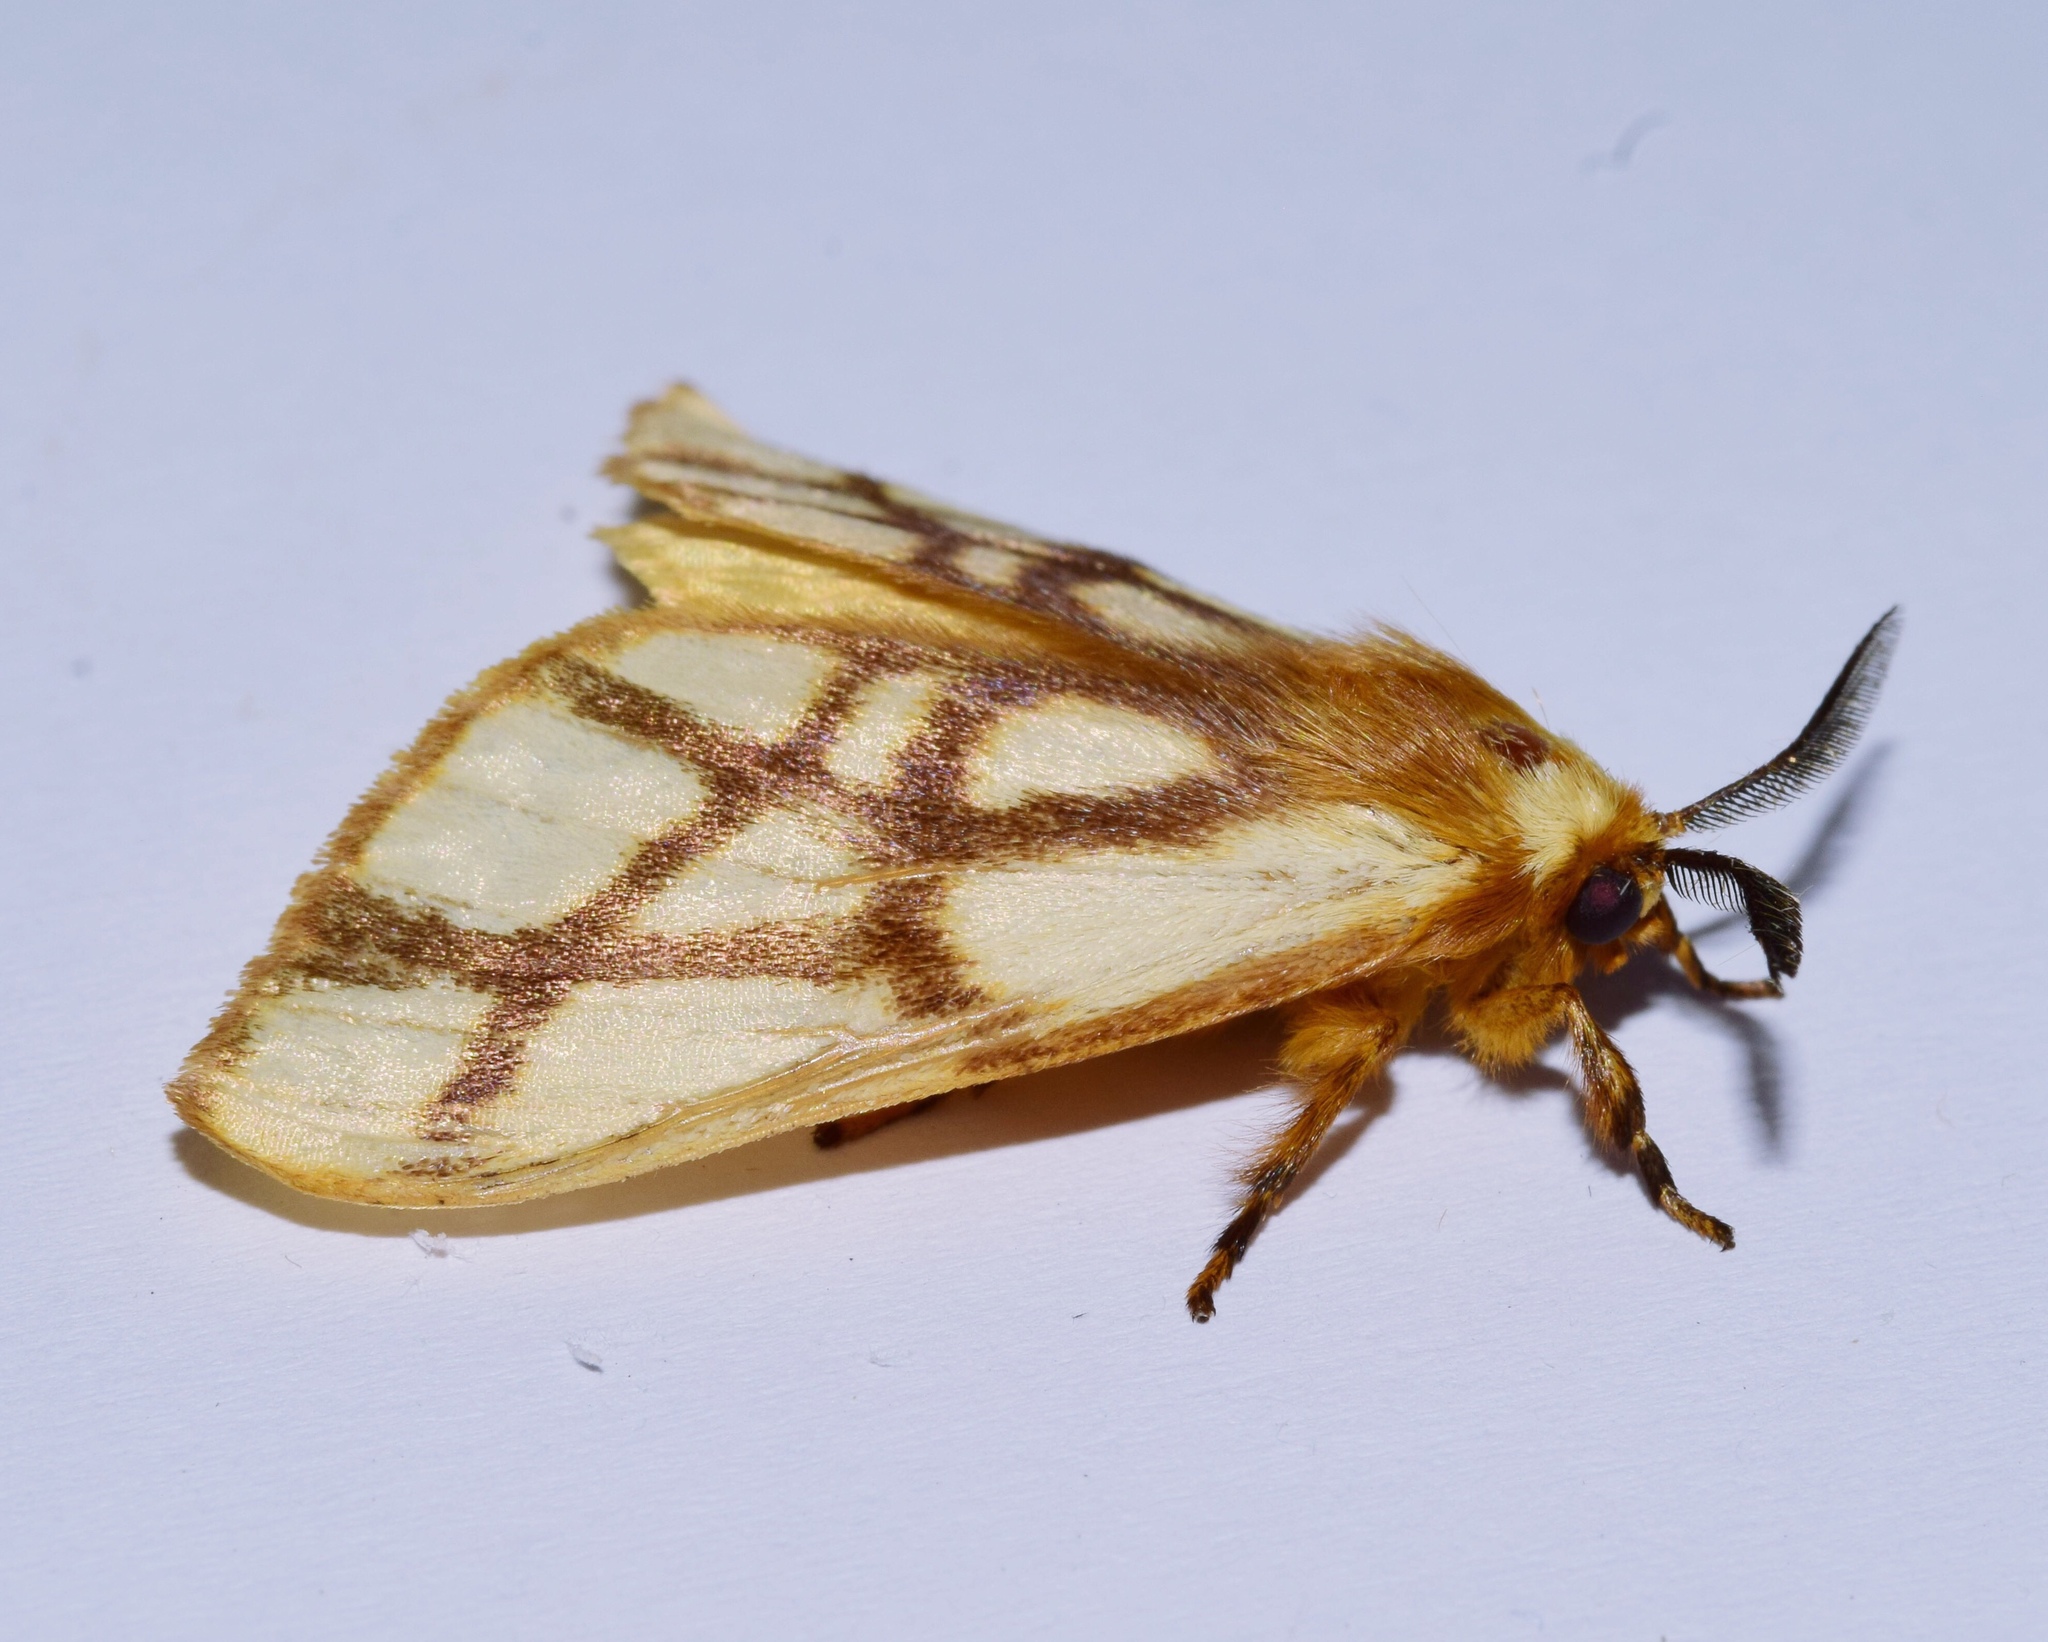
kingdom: Animalia
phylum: Arthropoda
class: Insecta
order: Lepidoptera
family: Notodontidae
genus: Anaphe
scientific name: Anaphe reticulata
